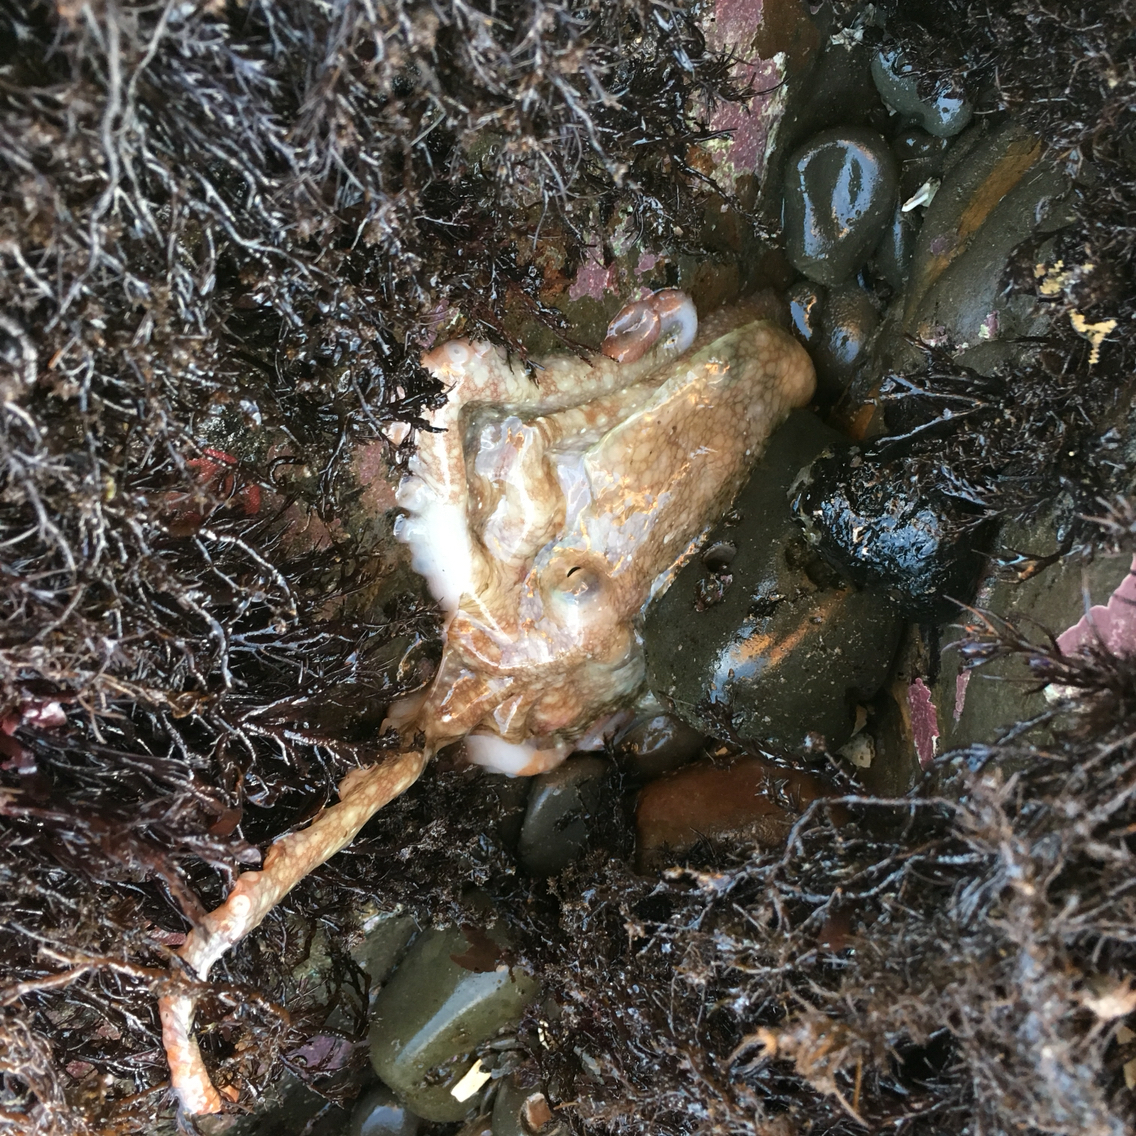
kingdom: Animalia
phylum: Mollusca
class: Cephalopoda
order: Octopoda
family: Octopodidae
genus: Octopus
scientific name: Octopus rubescens
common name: East pacific red octopus
